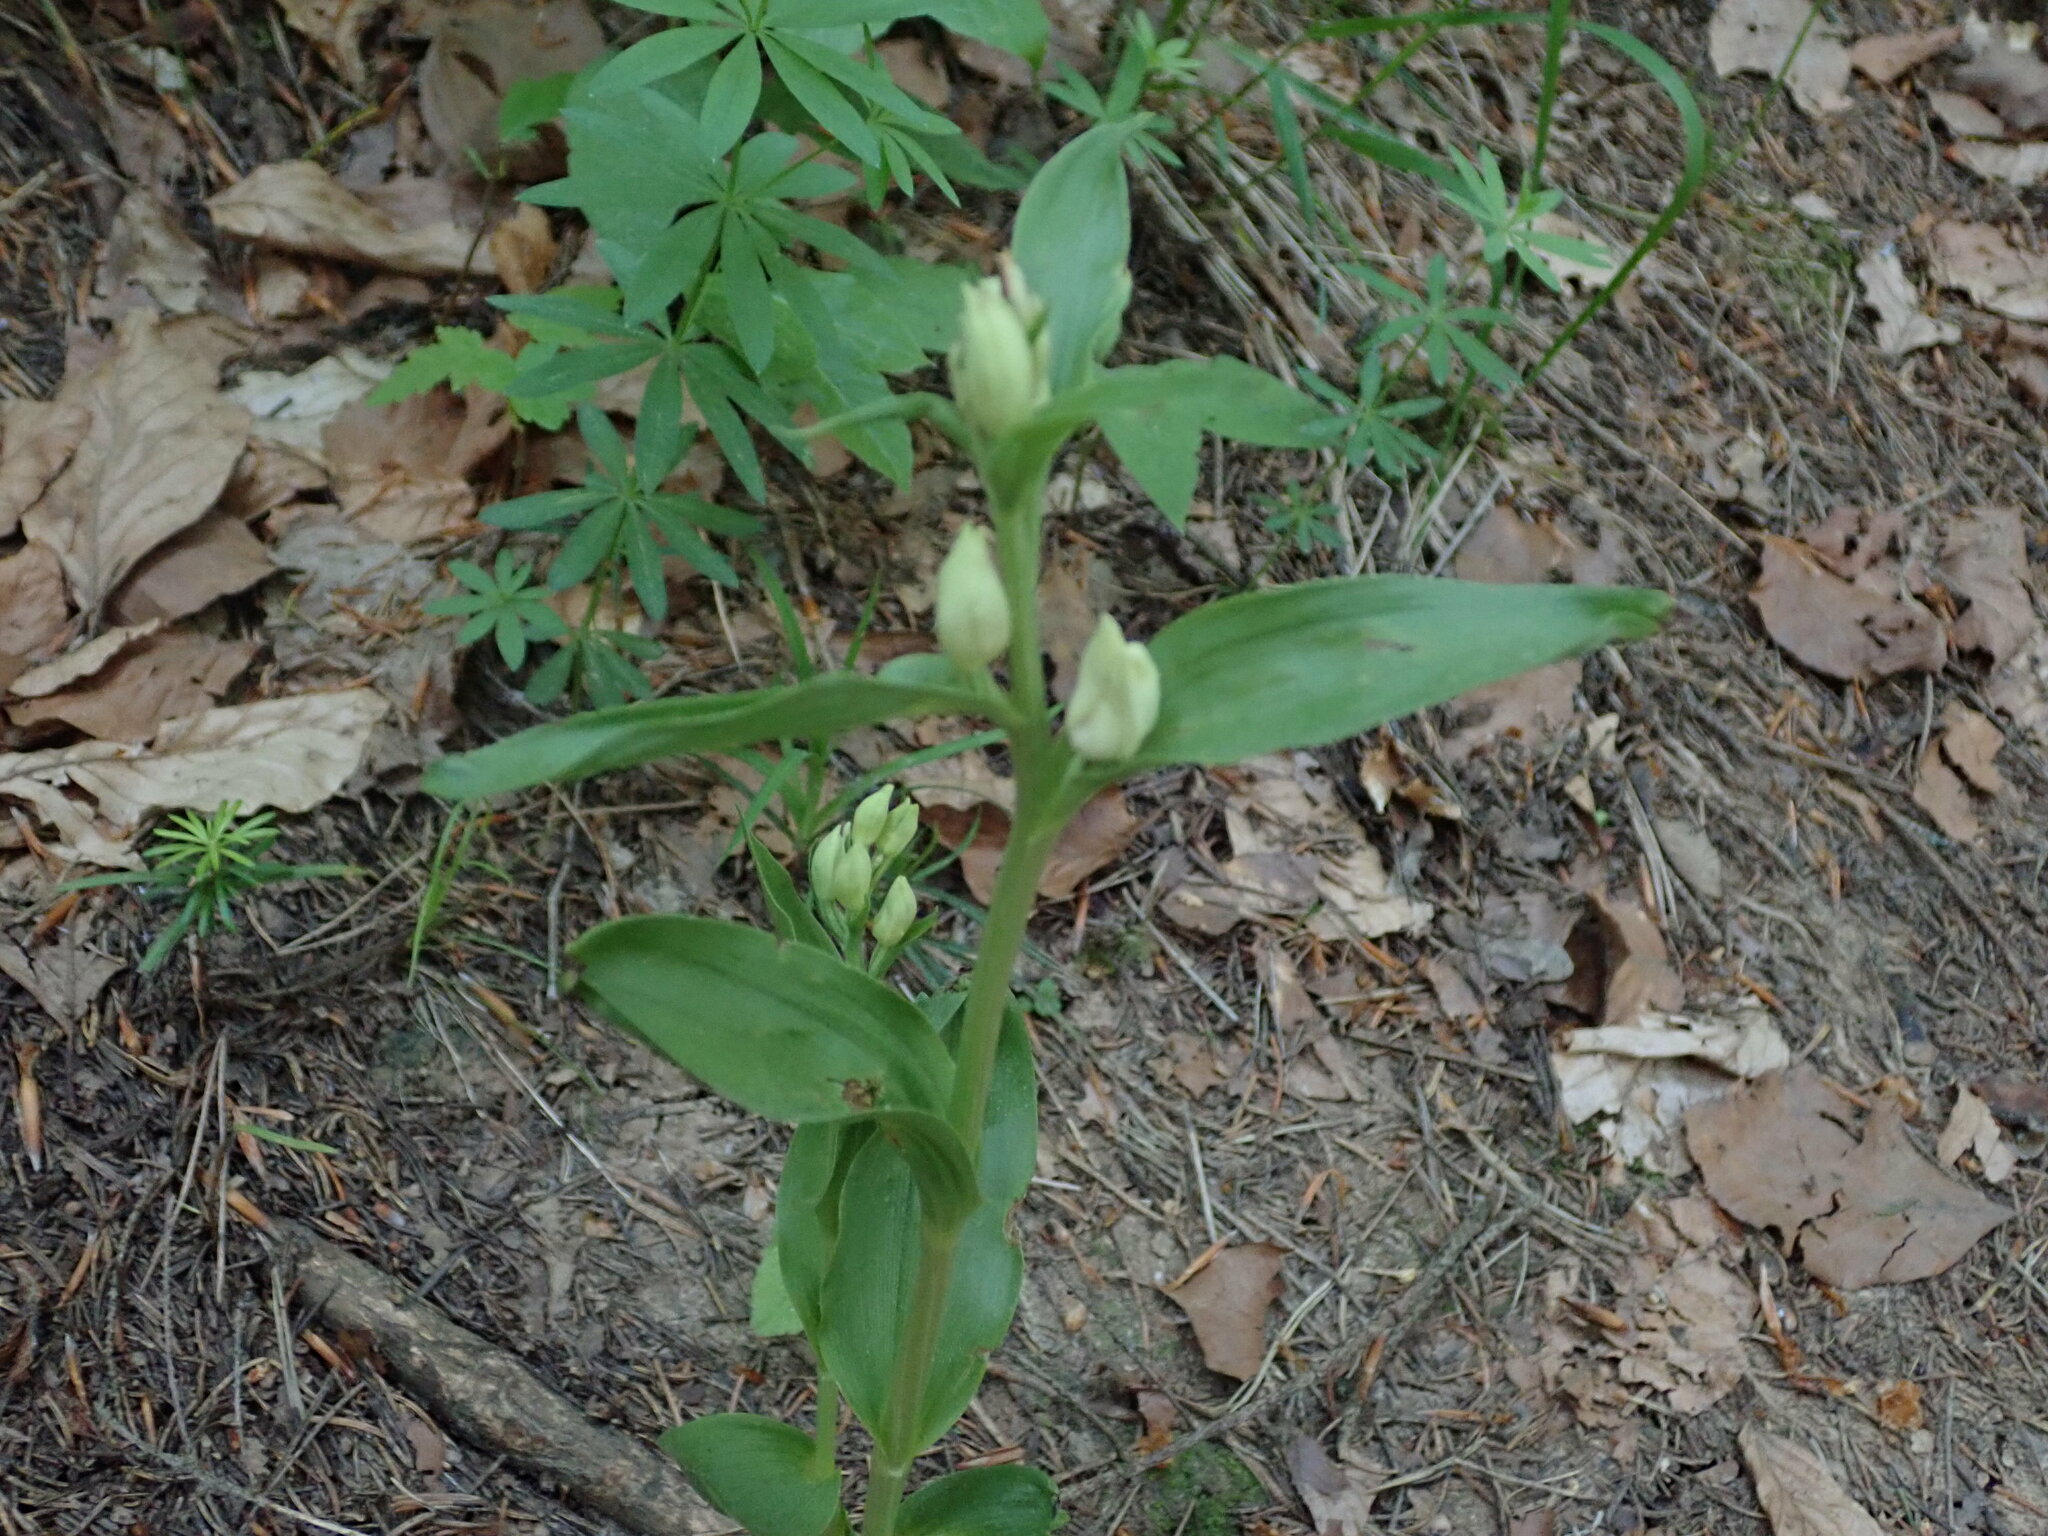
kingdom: Plantae
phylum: Tracheophyta
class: Liliopsida
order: Asparagales
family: Orchidaceae
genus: Cephalanthera
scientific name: Cephalanthera damasonium
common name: White helleborine
